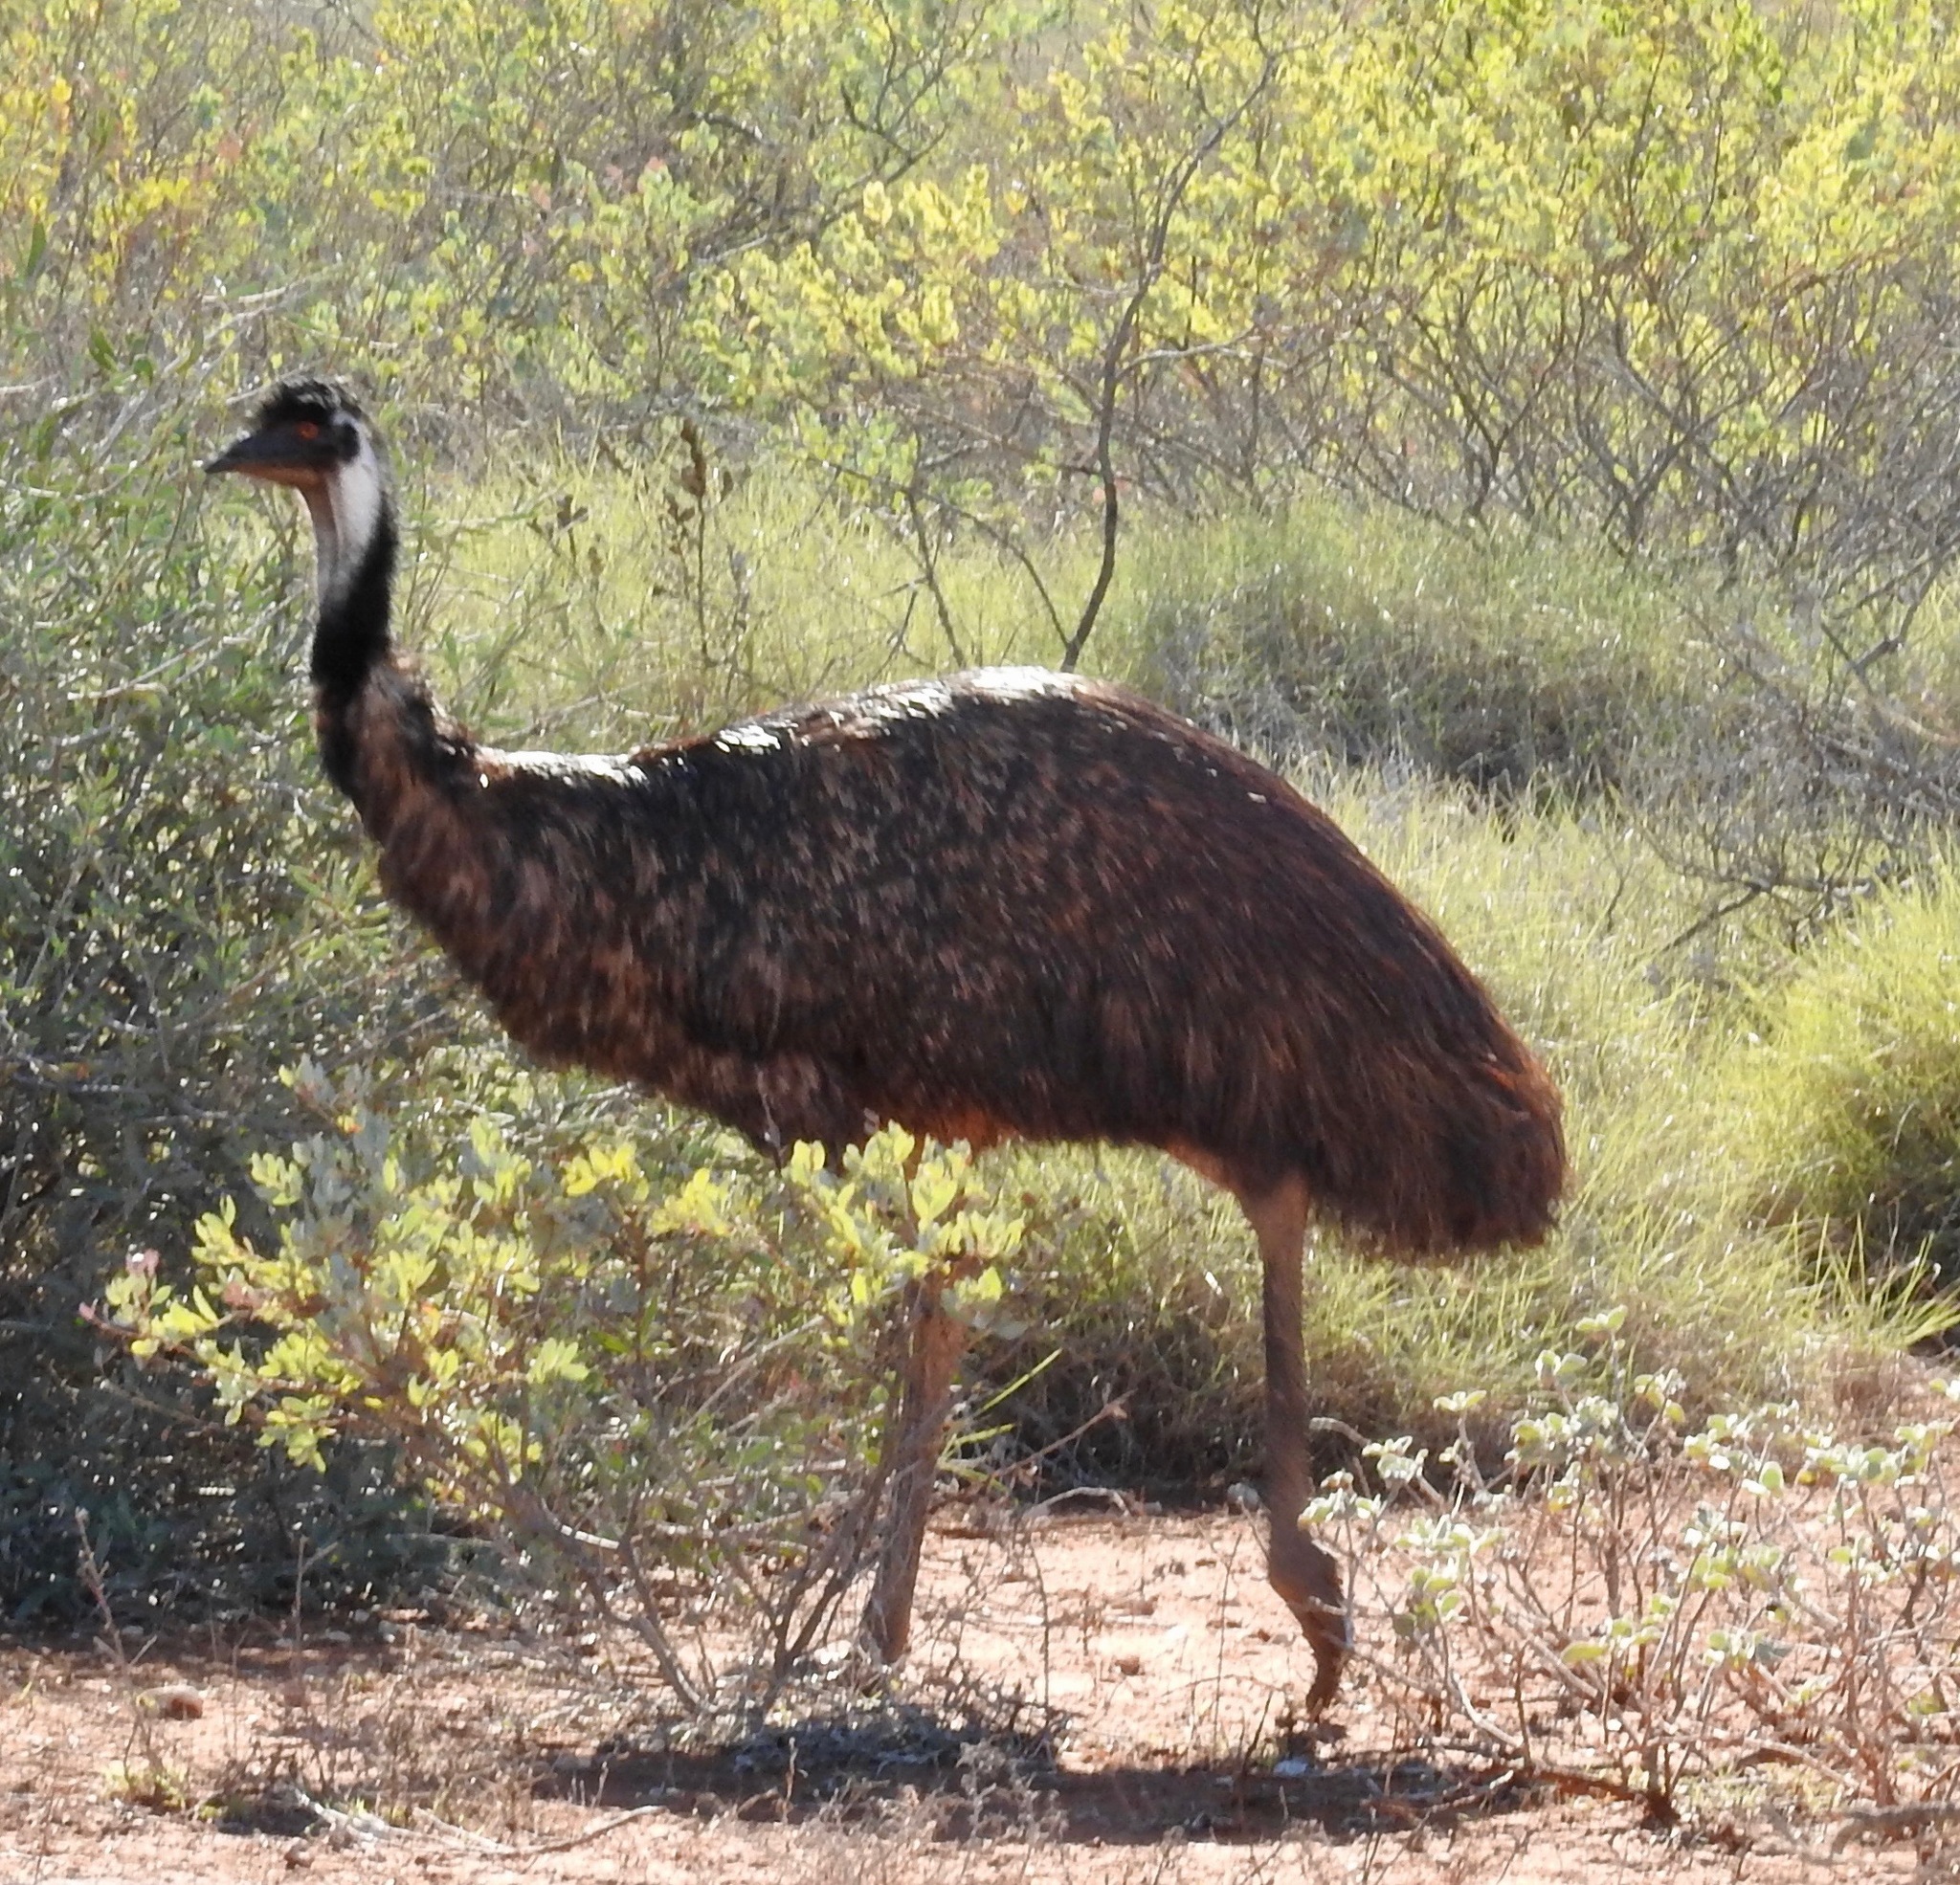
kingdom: Animalia
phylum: Chordata
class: Aves
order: Casuariiformes
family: Dromaiidae
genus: Dromaius
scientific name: Dromaius novaehollandiae
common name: Emu
